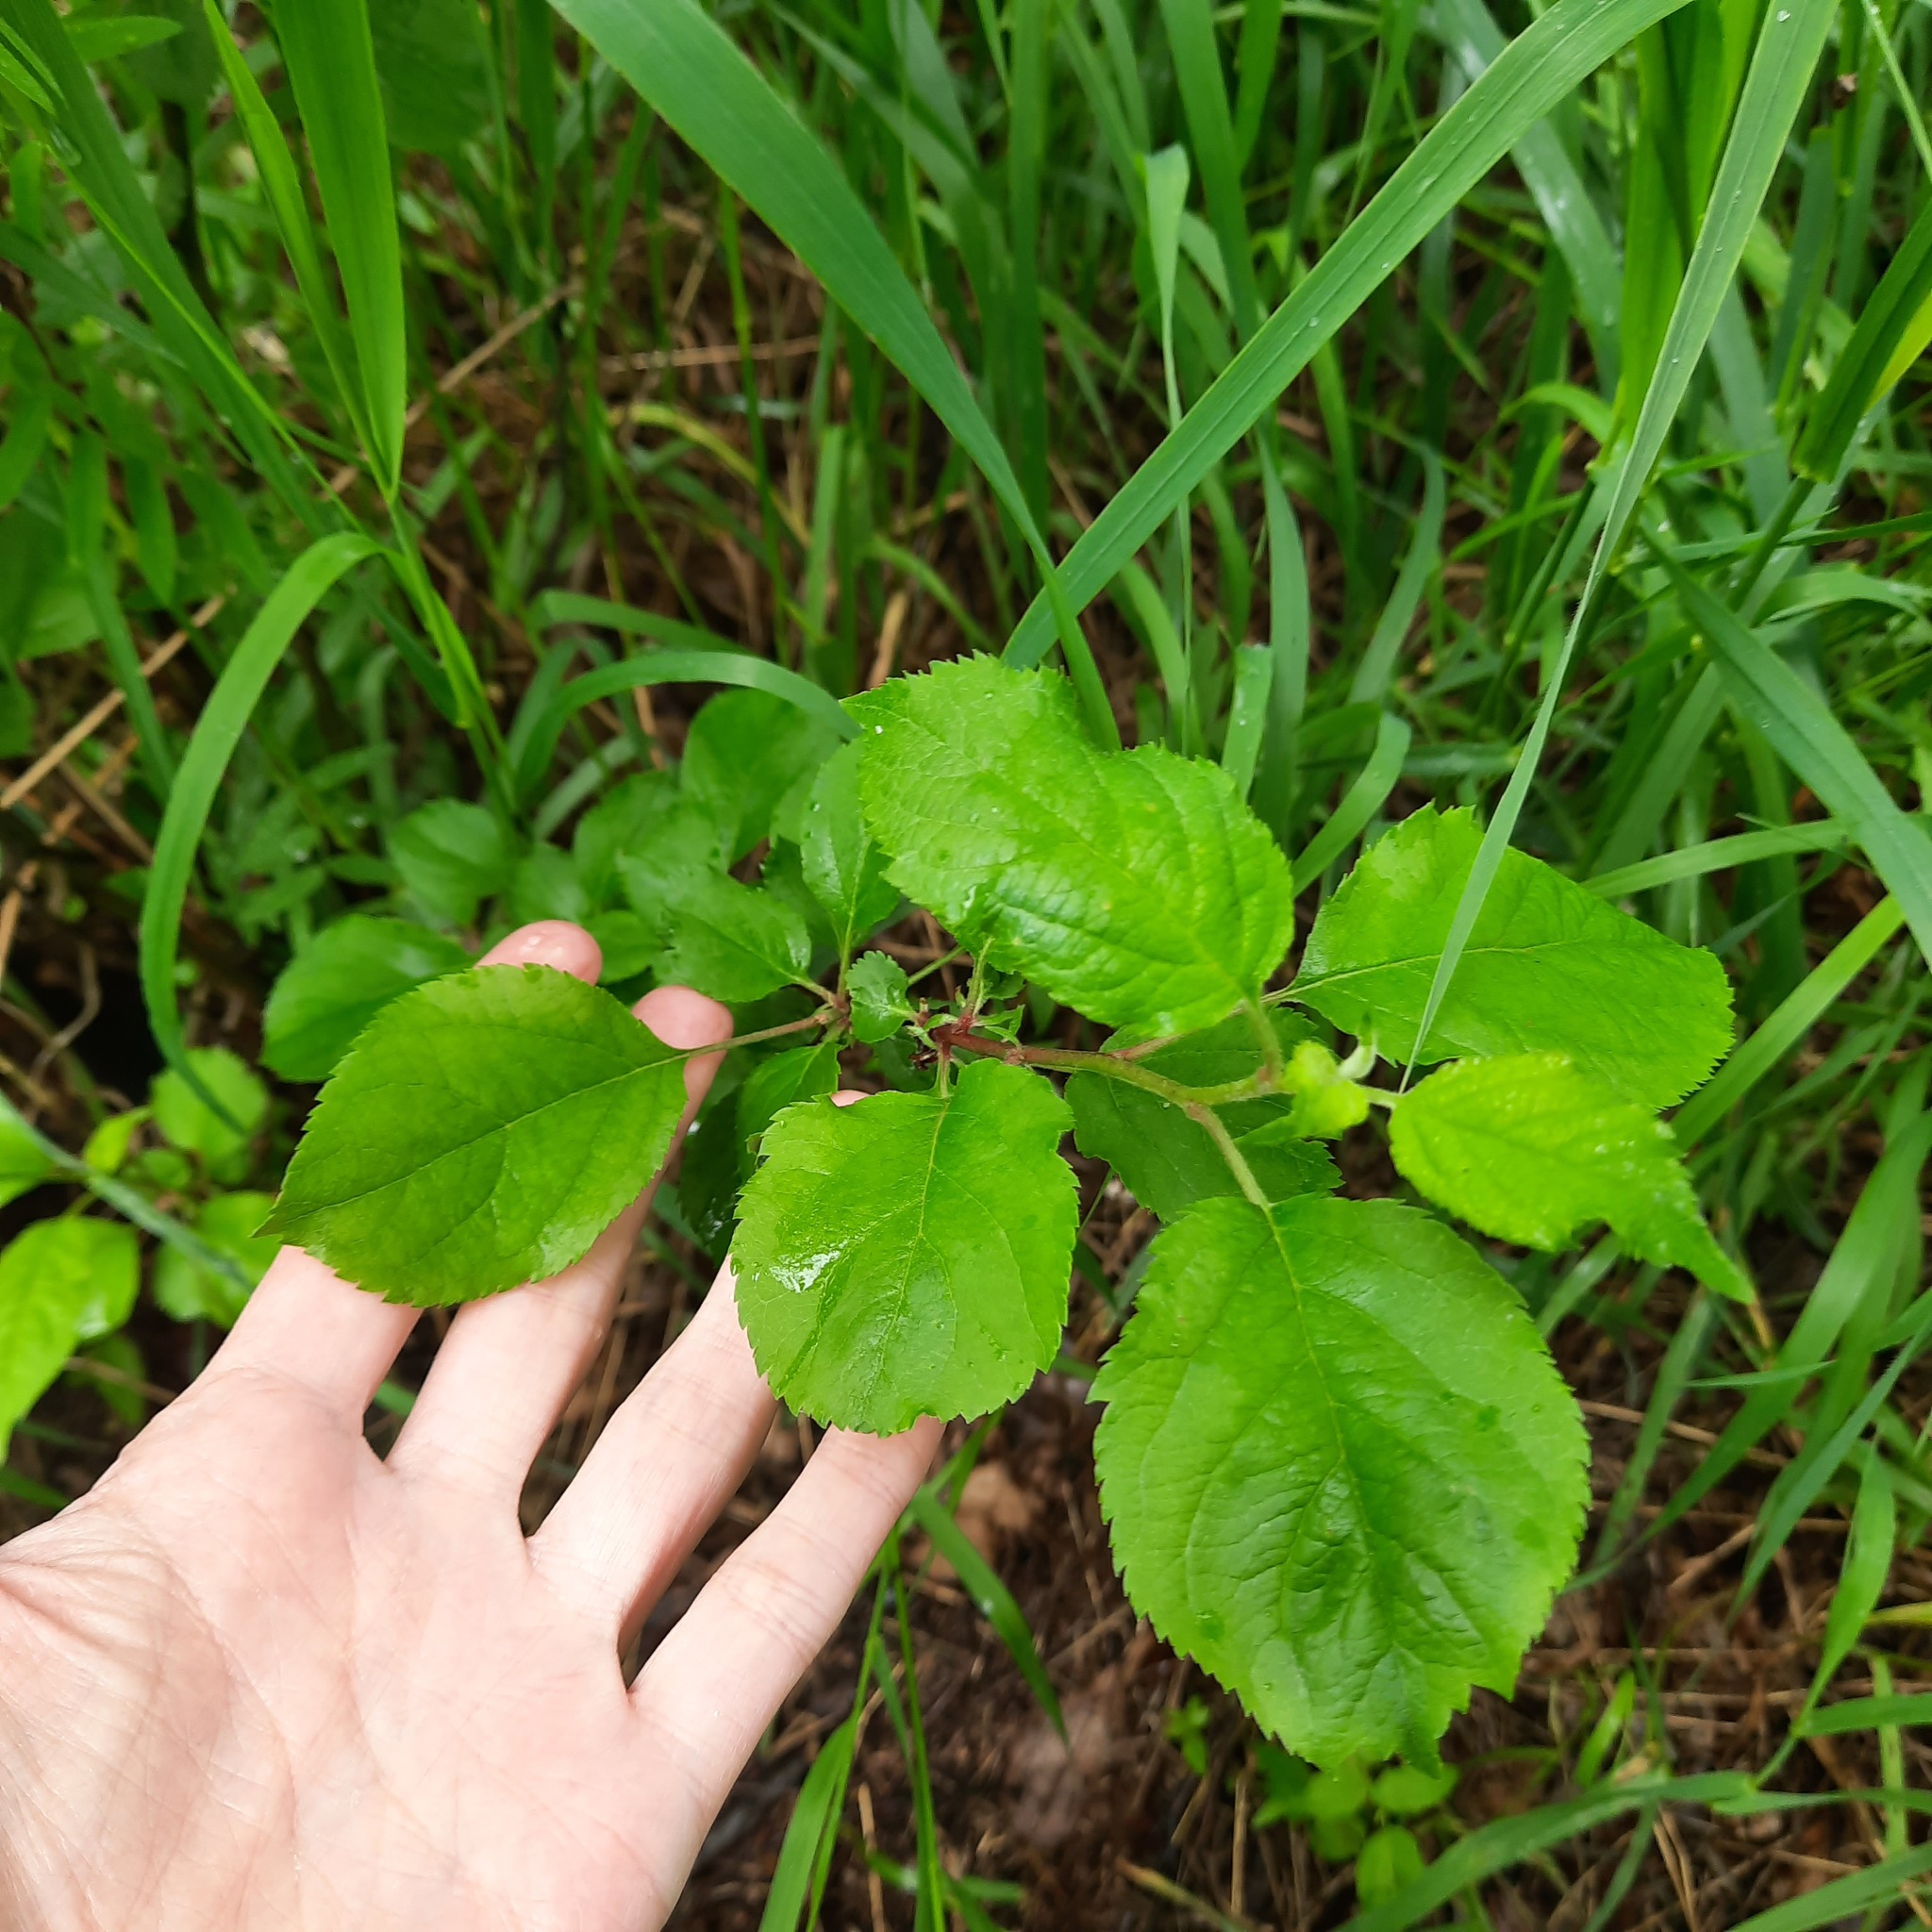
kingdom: Plantae
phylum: Tracheophyta
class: Magnoliopsida
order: Rosales
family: Rosaceae
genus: Malus
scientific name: Malus baccata
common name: Siberian crab
